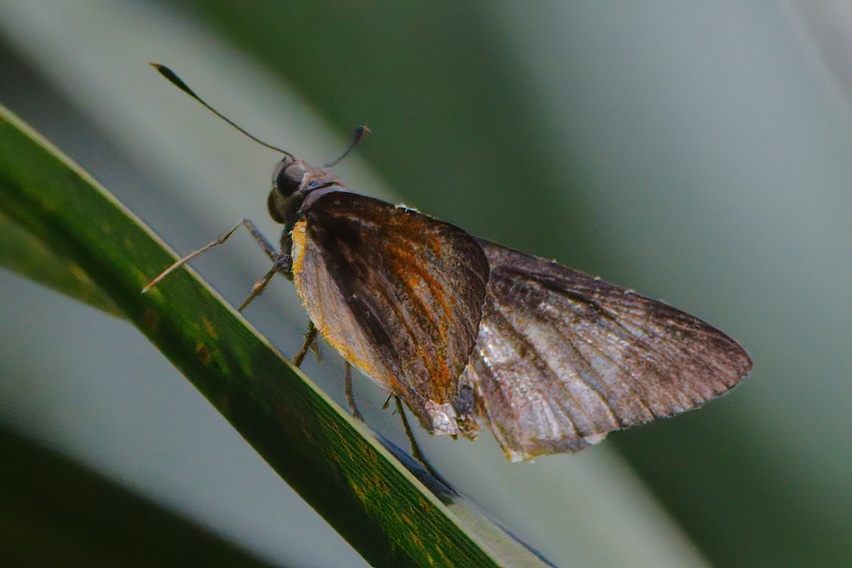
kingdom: Animalia
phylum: Arthropoda
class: Insecta
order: Lepidoptera
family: Hesperiidae
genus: Asbolis
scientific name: Asbolis capucinus
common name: Monk skipper
